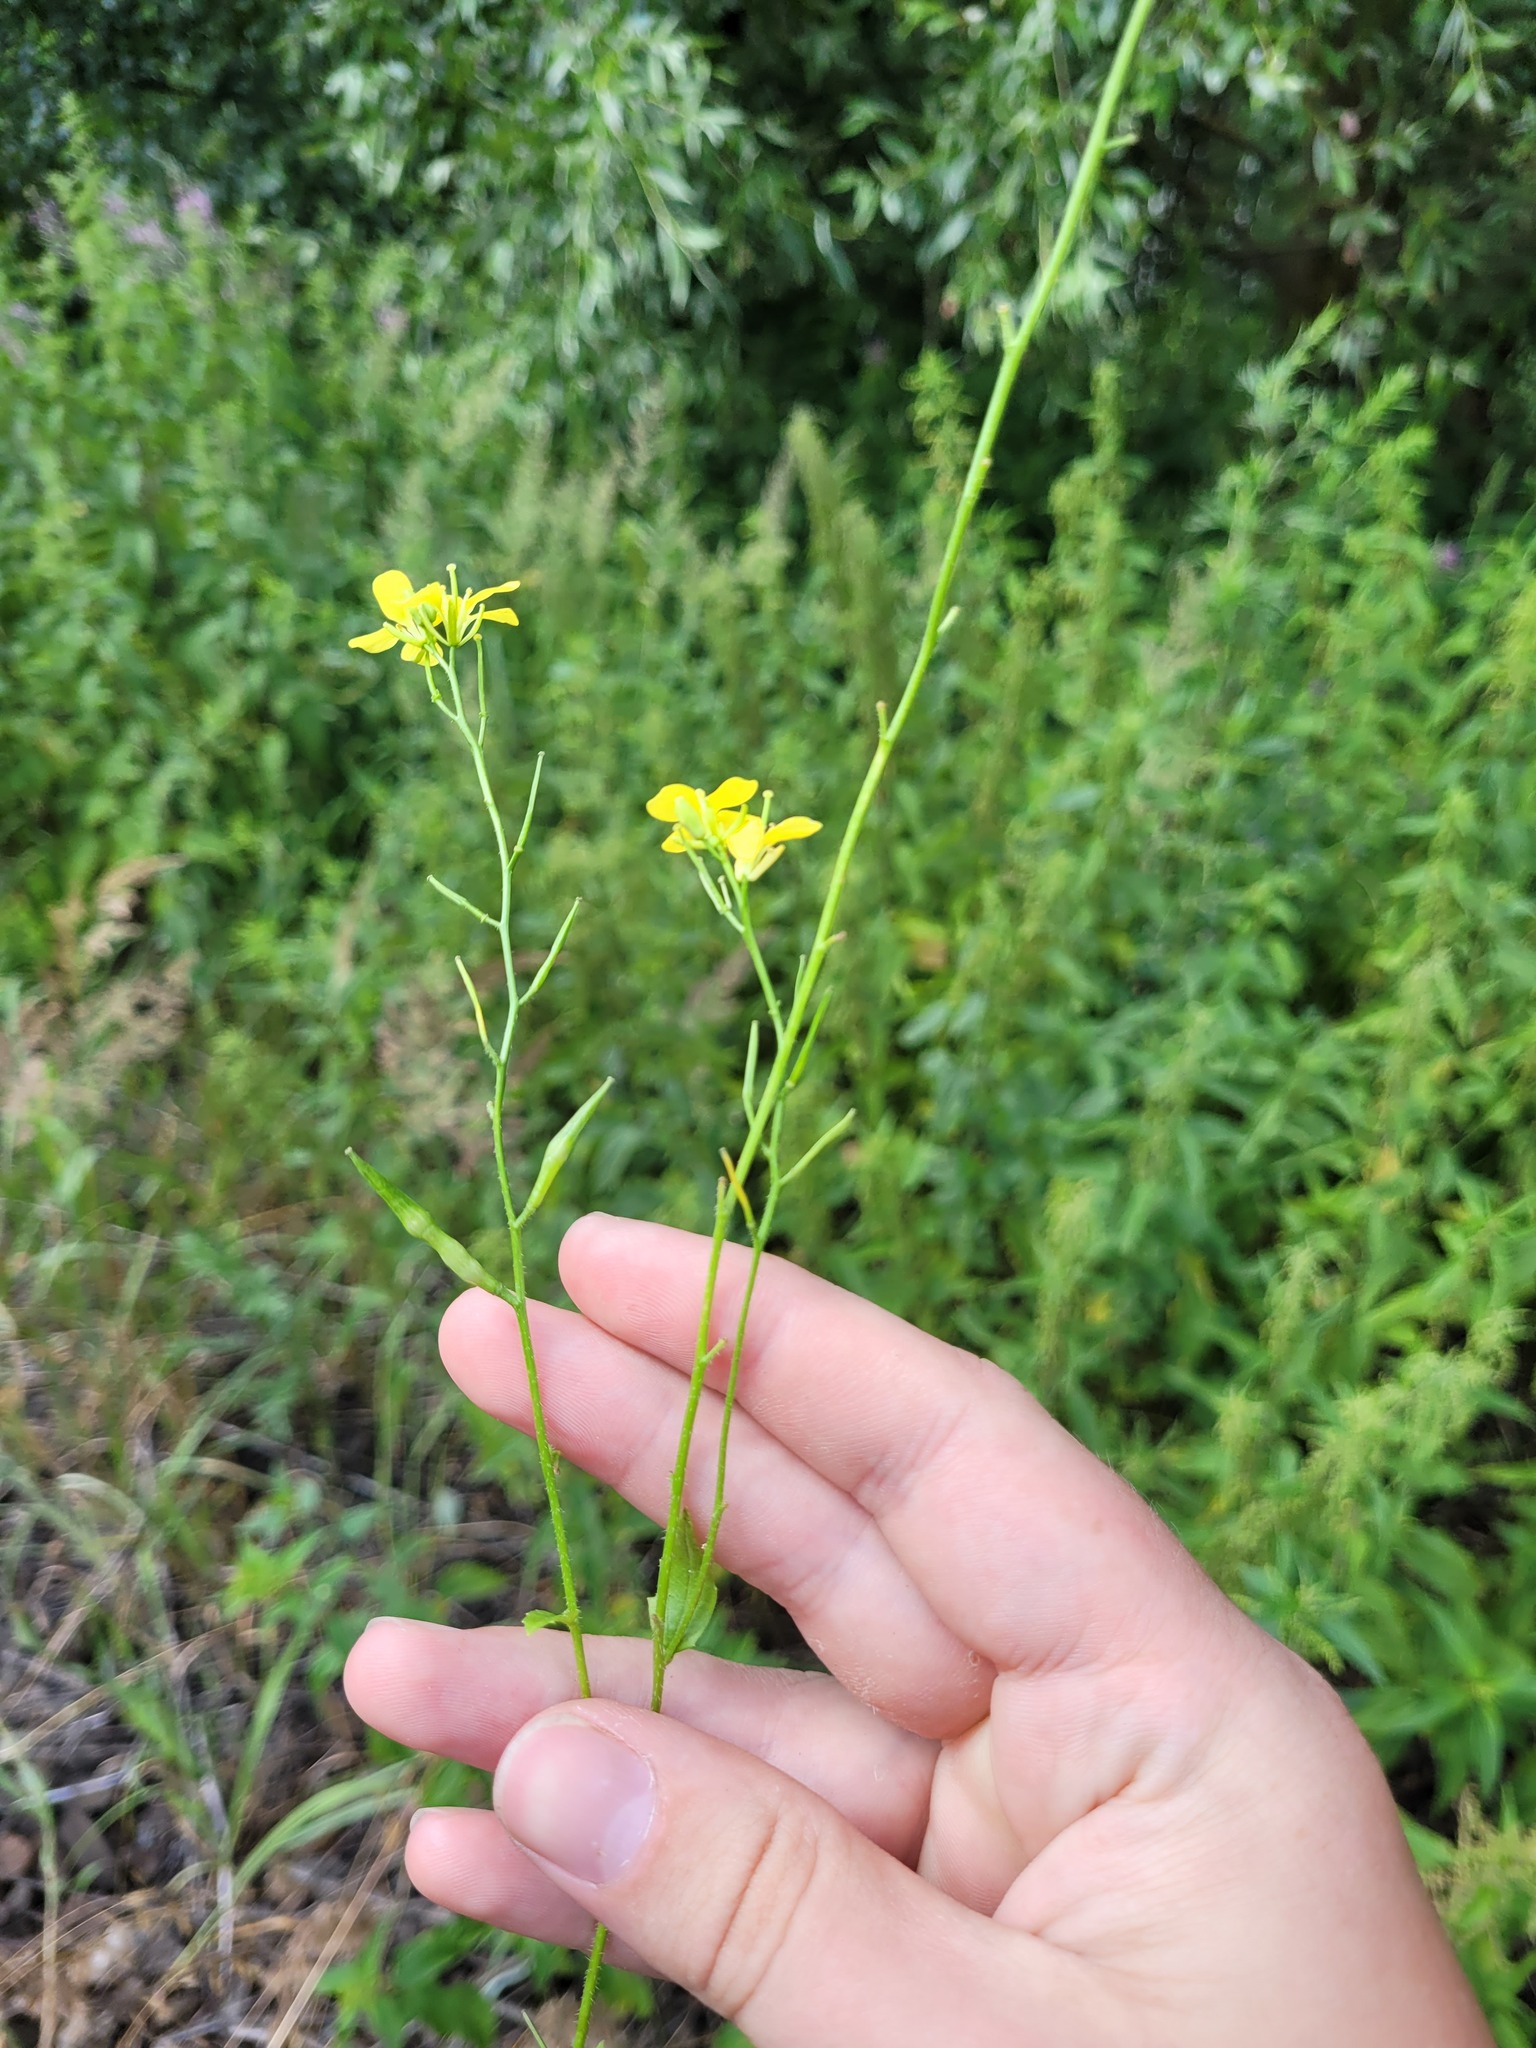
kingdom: Plantae
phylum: Tracheophyta
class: Magnoliopsida
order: Brassicales
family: Brassicaceae
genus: Sinapis
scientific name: Sinapis arvensis
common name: Charlock
